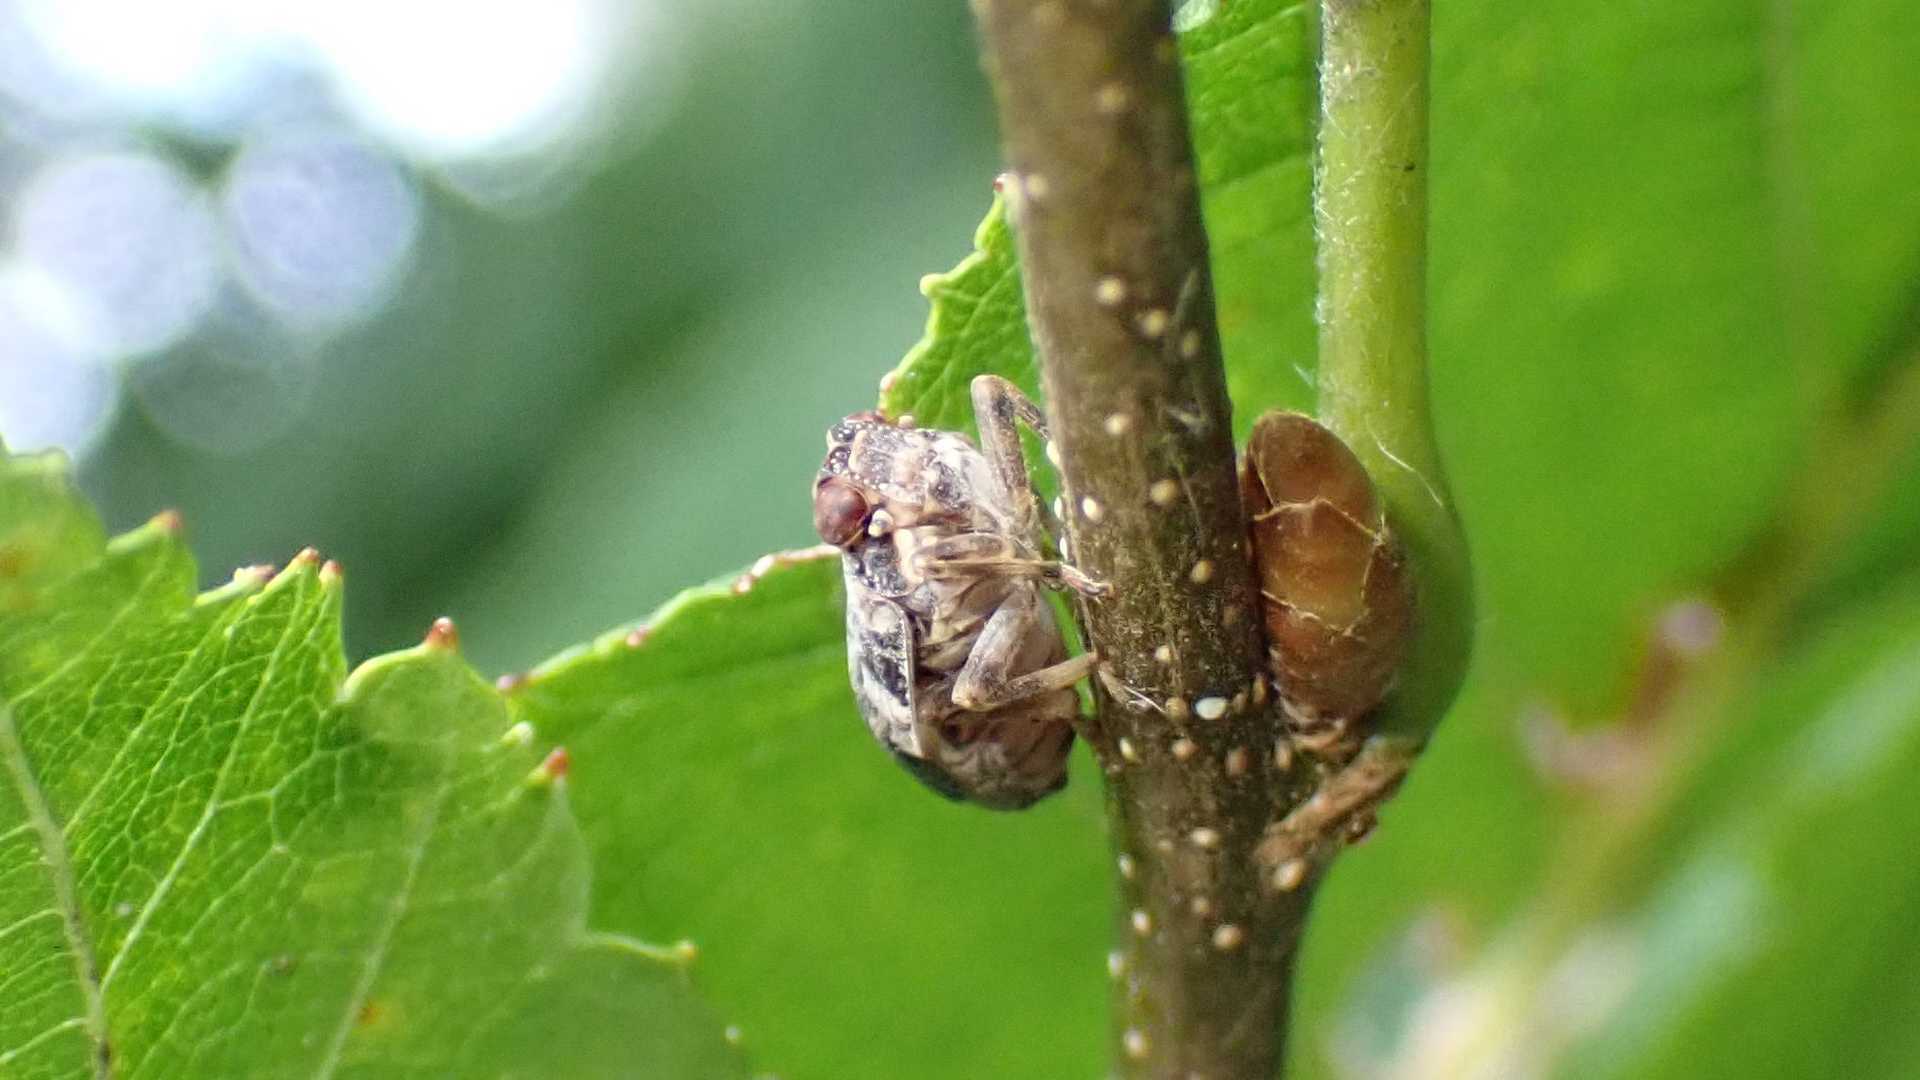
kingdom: Animalia
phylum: Arthropoda
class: Insecta
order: Hemiptera
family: Issidae
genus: Issus
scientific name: Issus coleoptratus
